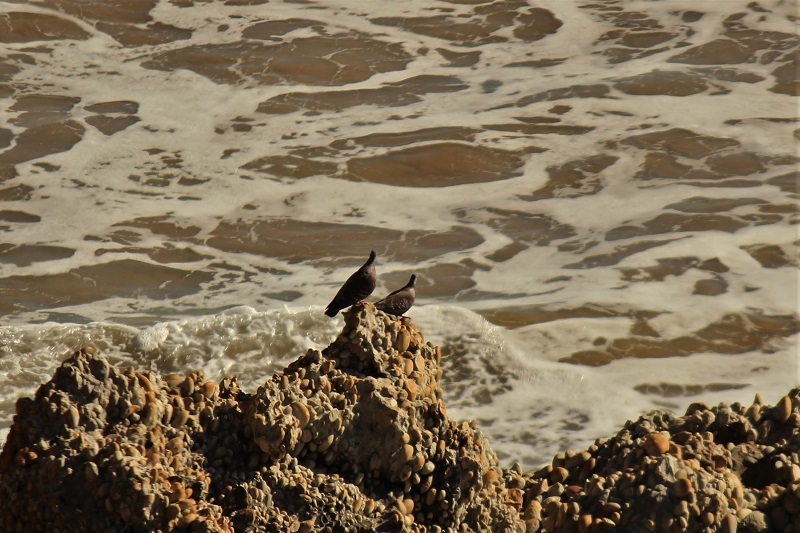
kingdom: Animalia
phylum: Chordata
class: Aves
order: Columbiformes
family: Columbidae
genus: Columba
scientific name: Columba guinea
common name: Speckled pigeon
